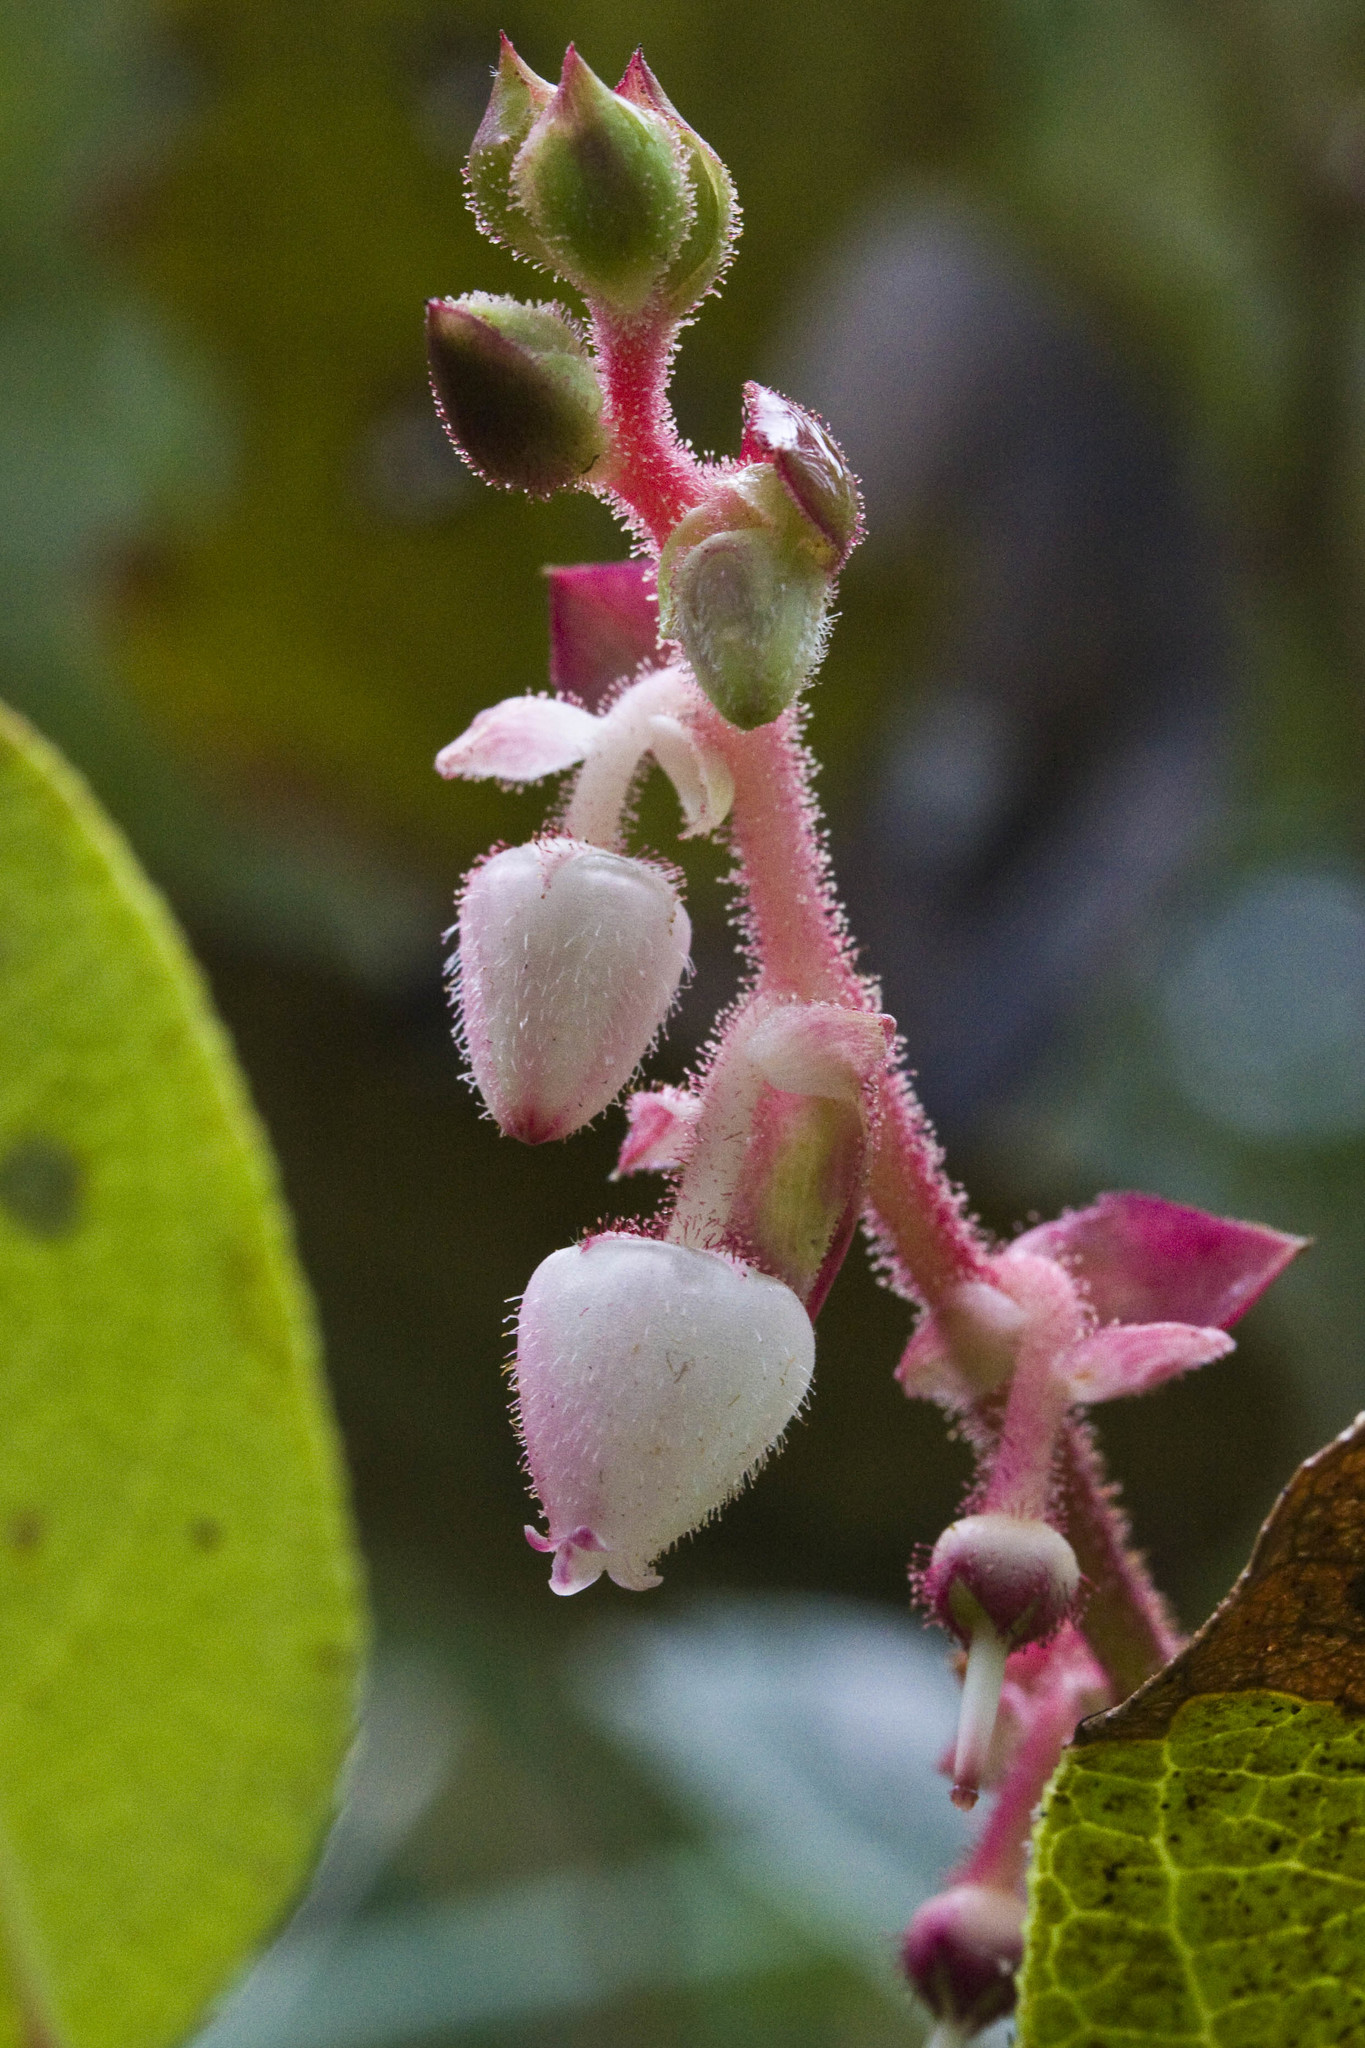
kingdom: Plantae
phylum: Tracheophyta
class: Magnoliopsida
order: Ericales
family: Ericaceae
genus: Gaultheria
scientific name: Gaultheria shallon
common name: Shallon
